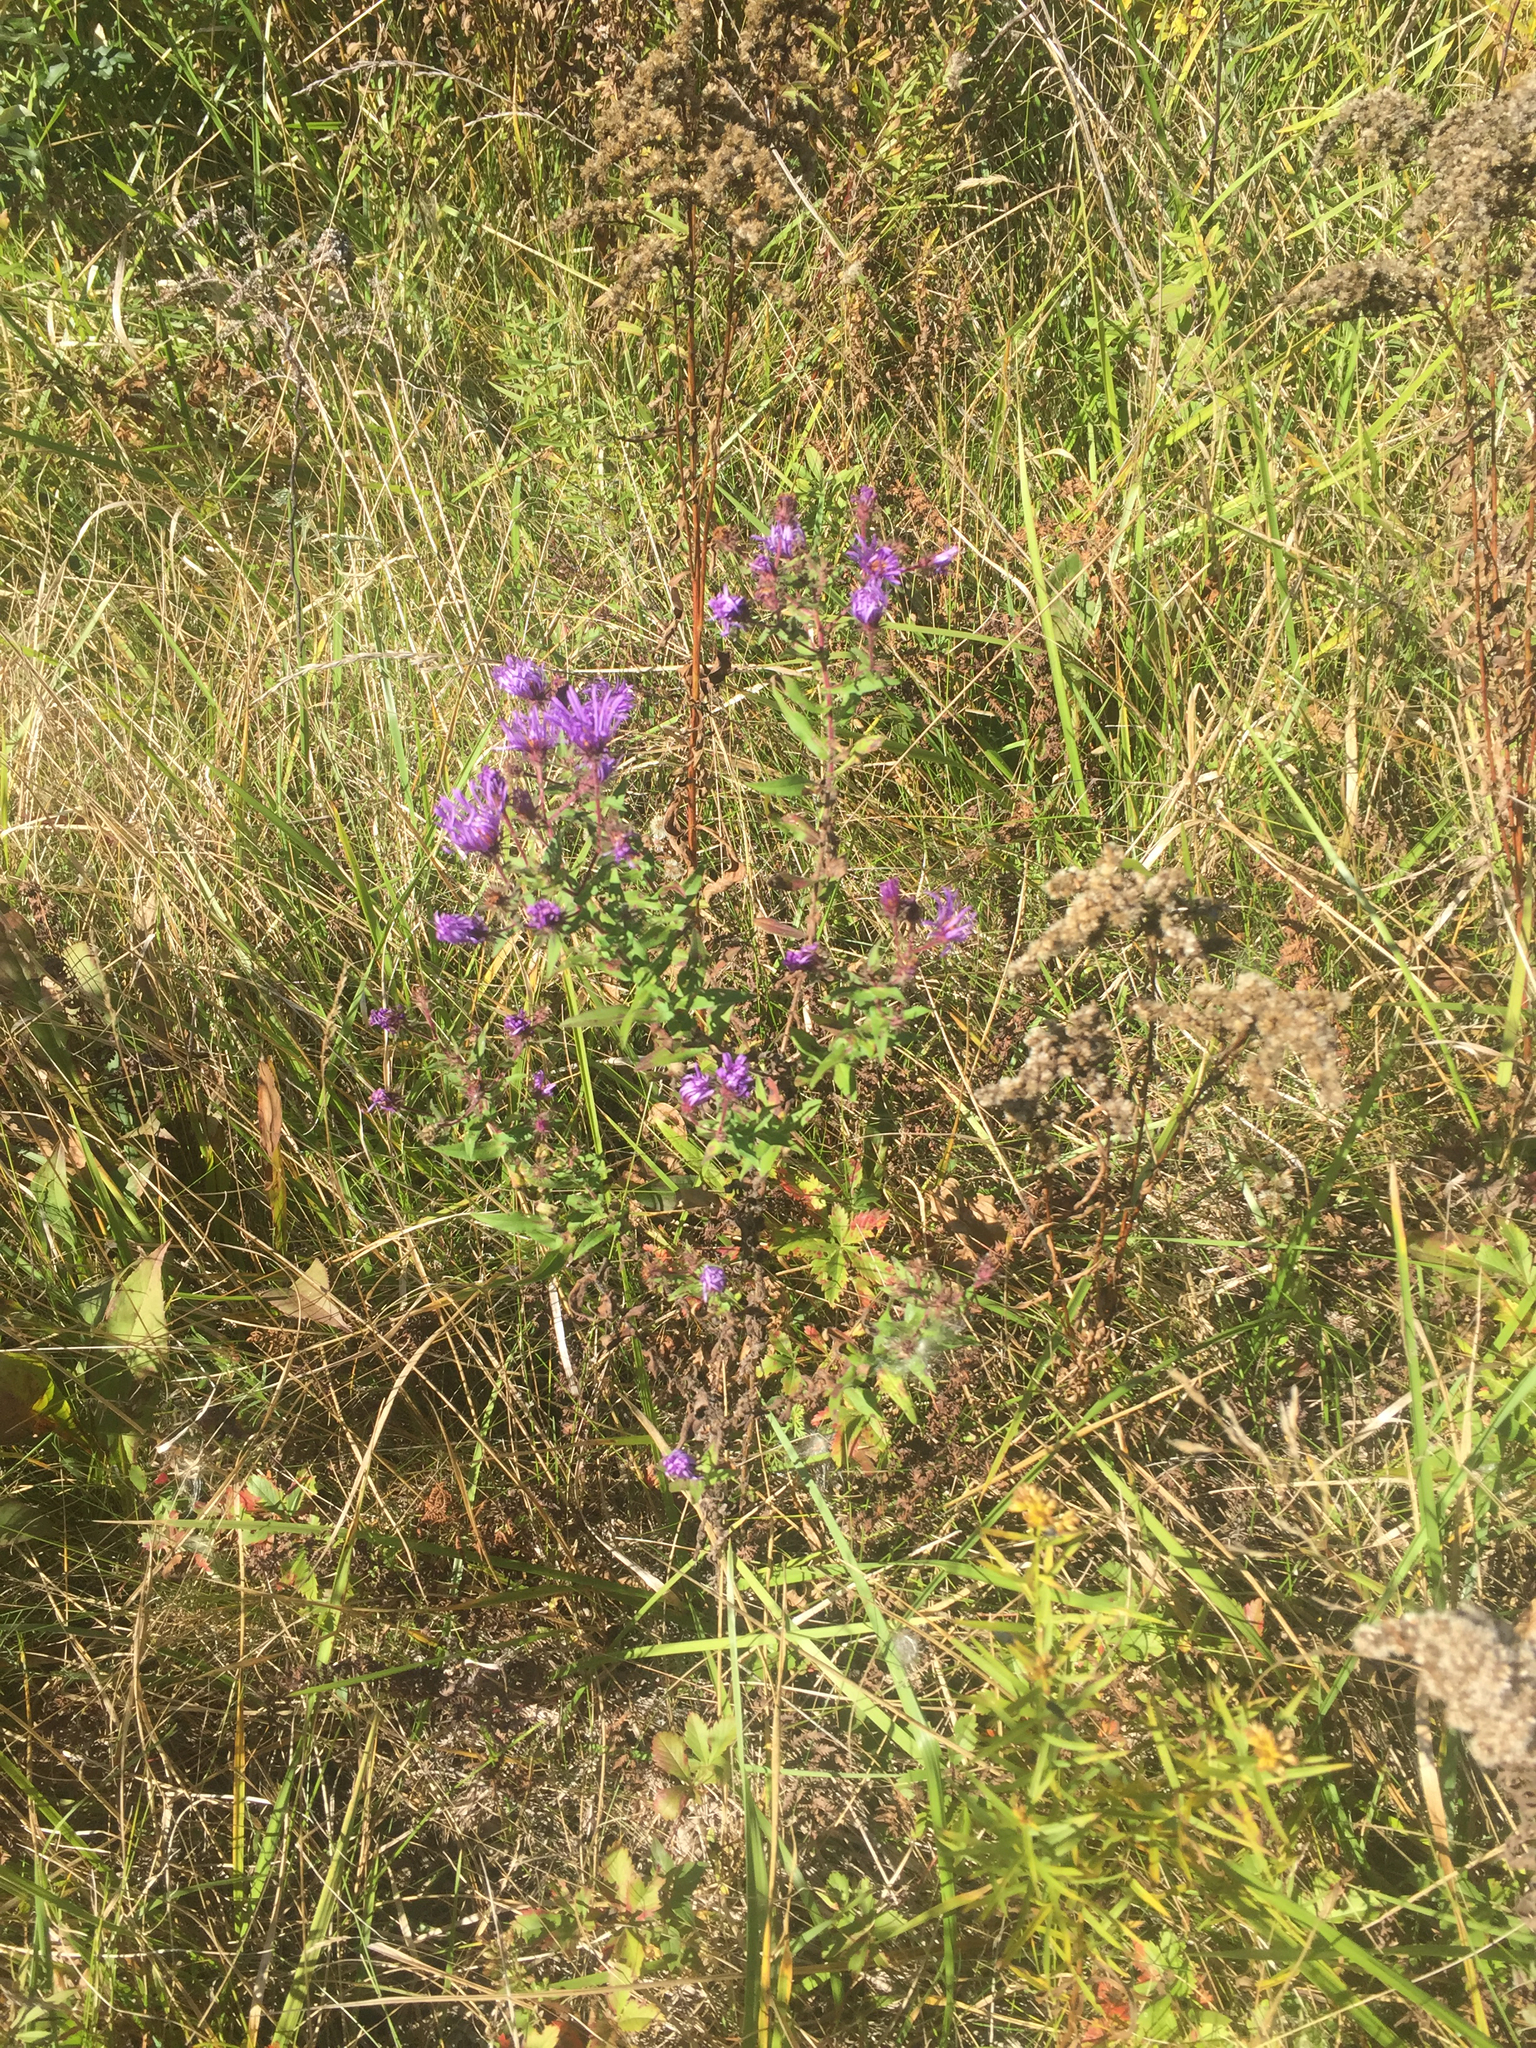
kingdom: Plantae
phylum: Tracheophyta
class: Magnoliopsida
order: Asterales
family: Asteraceae
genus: Symphyotrichum
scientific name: Symphyotrichum novae-angliae
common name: Michaelmas daisy
